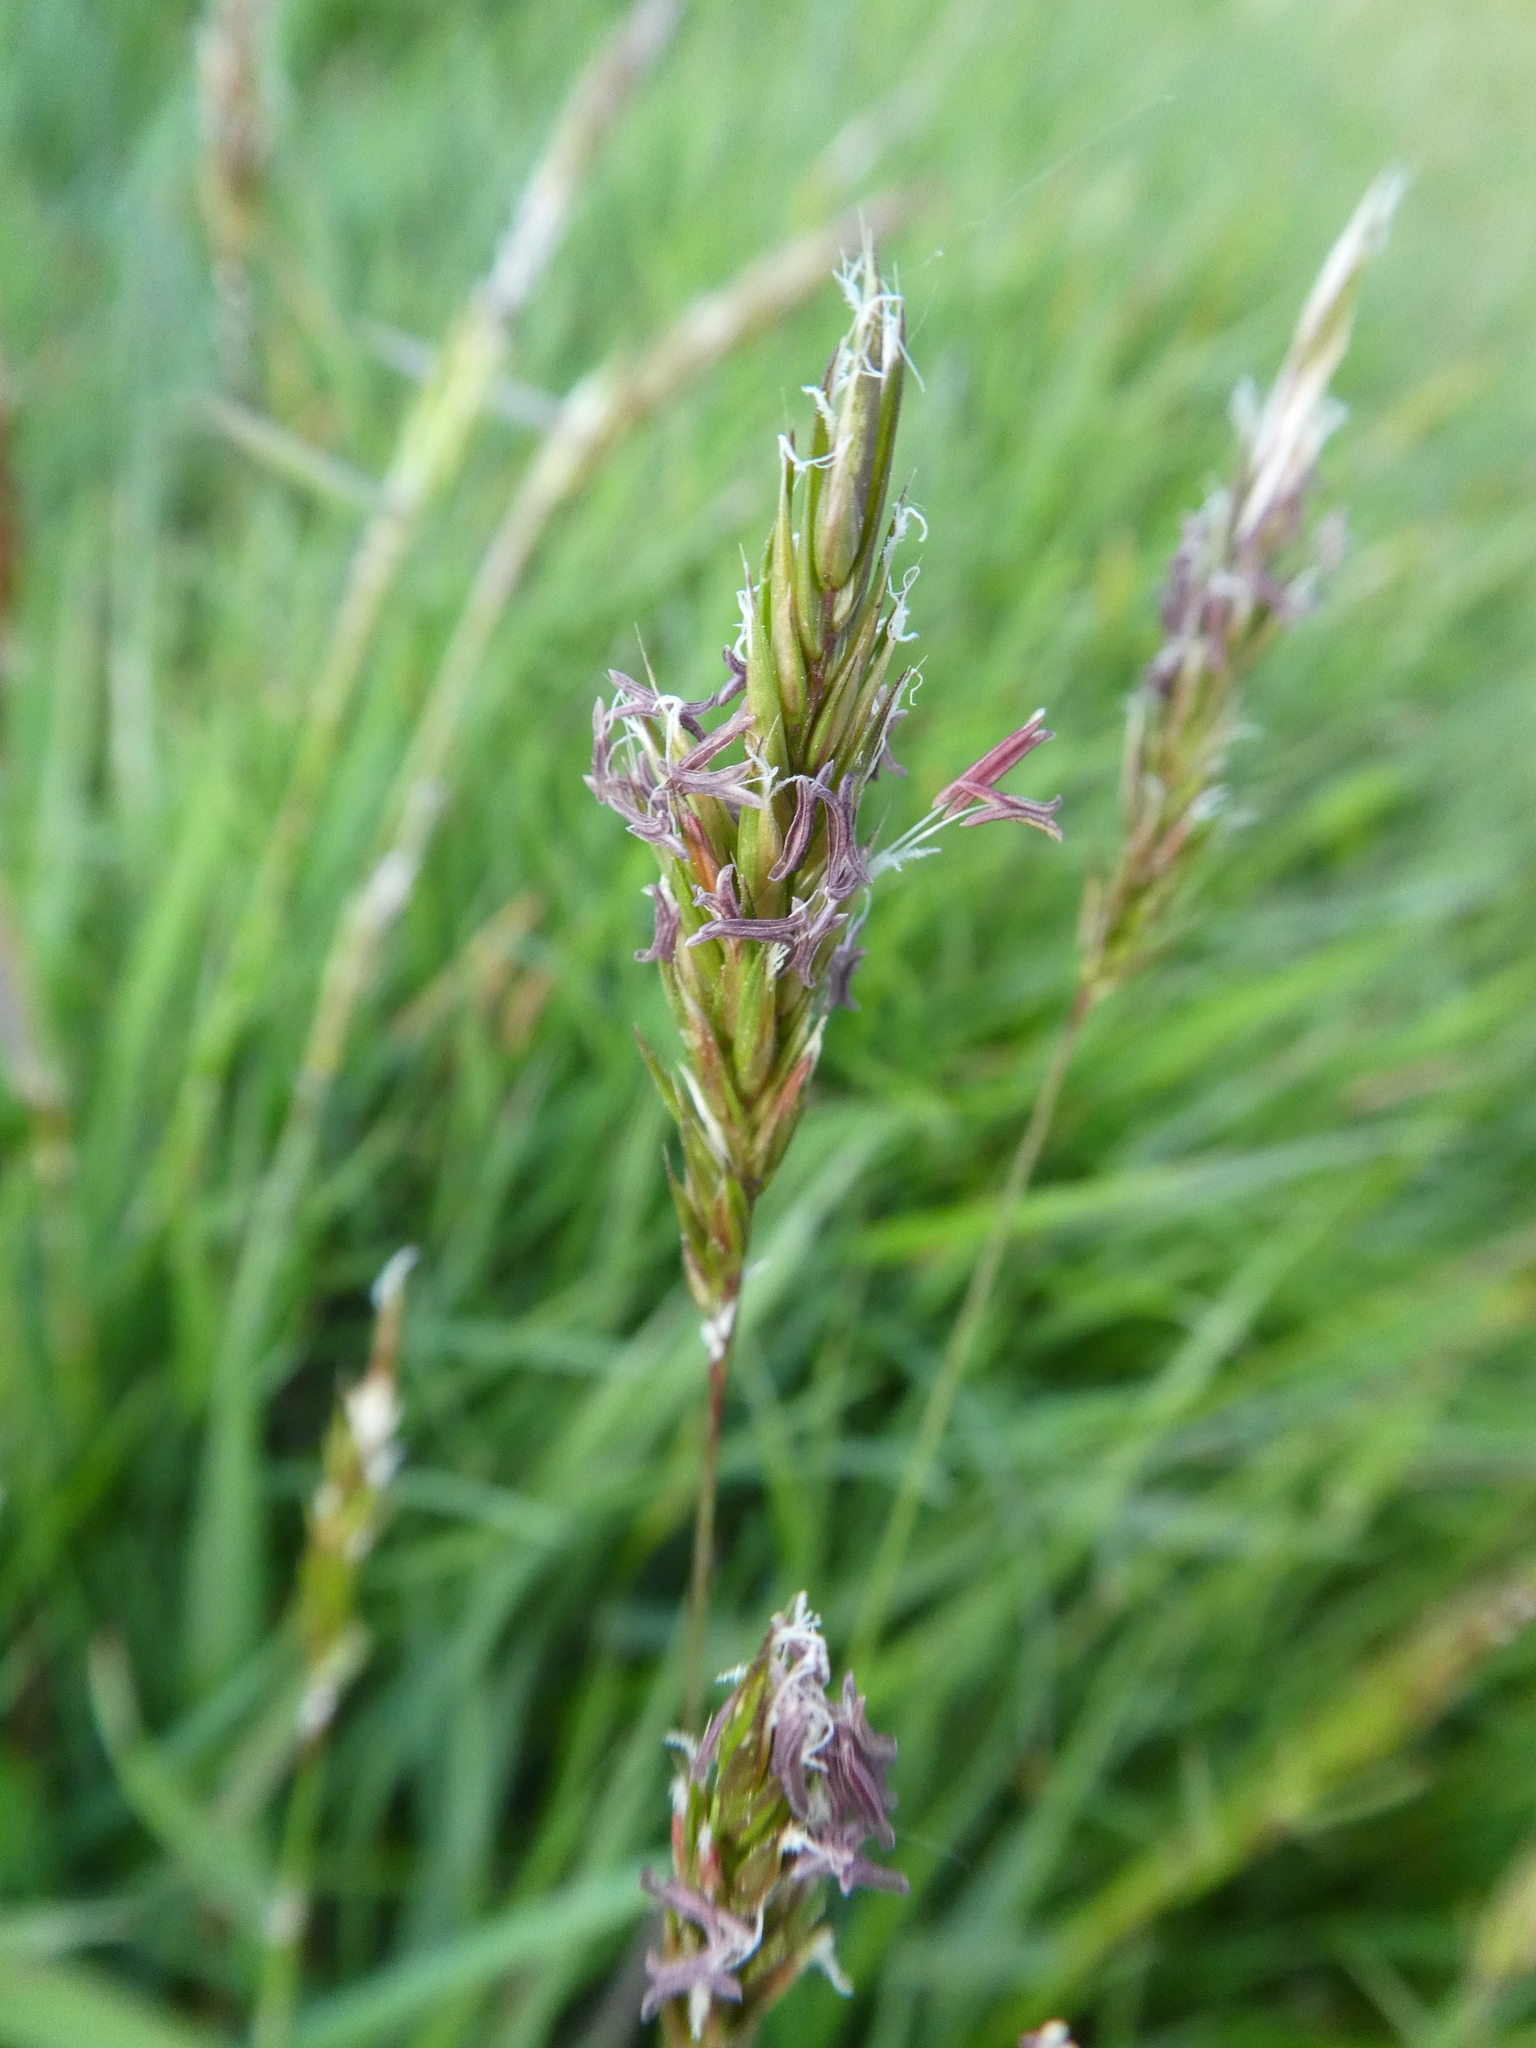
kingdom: Plantae
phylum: Tracheophyta
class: Liliopsida
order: Poales
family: Poaceae
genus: Anthoxanthum
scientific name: Anthoxanthum odoratum
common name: Sweet vernalgrass
